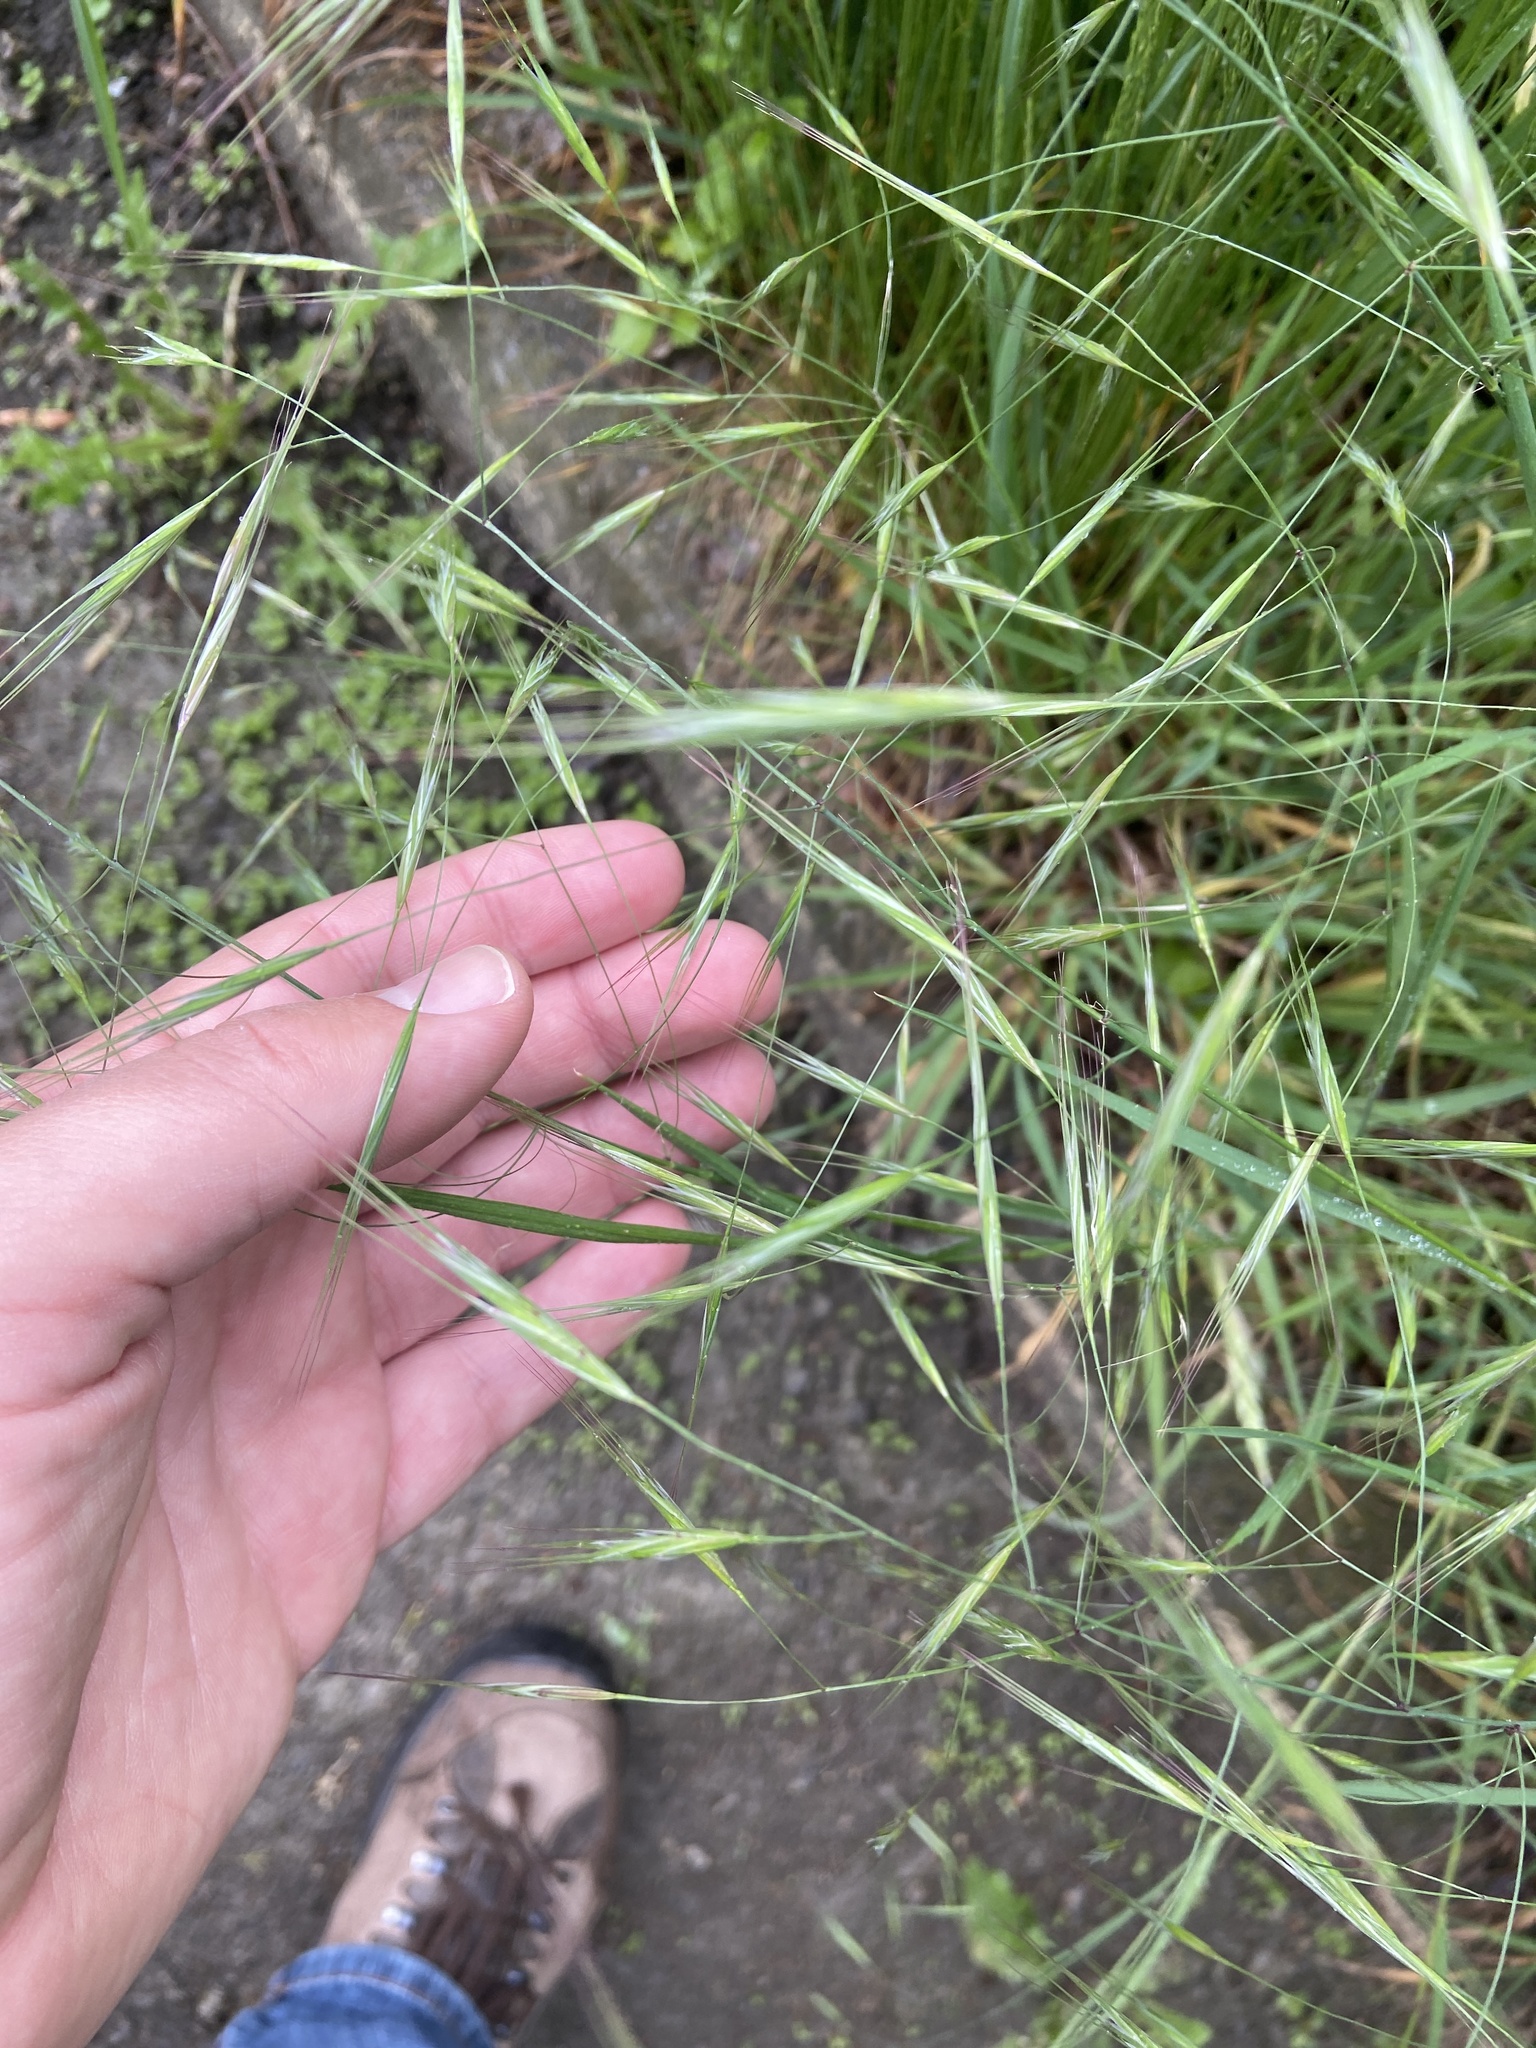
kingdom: Plantae
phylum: Tracheophyta
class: Liliopsida
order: Poales
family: Poaceae
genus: Bromus
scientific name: Bromus sterilis
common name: Poverty brome
